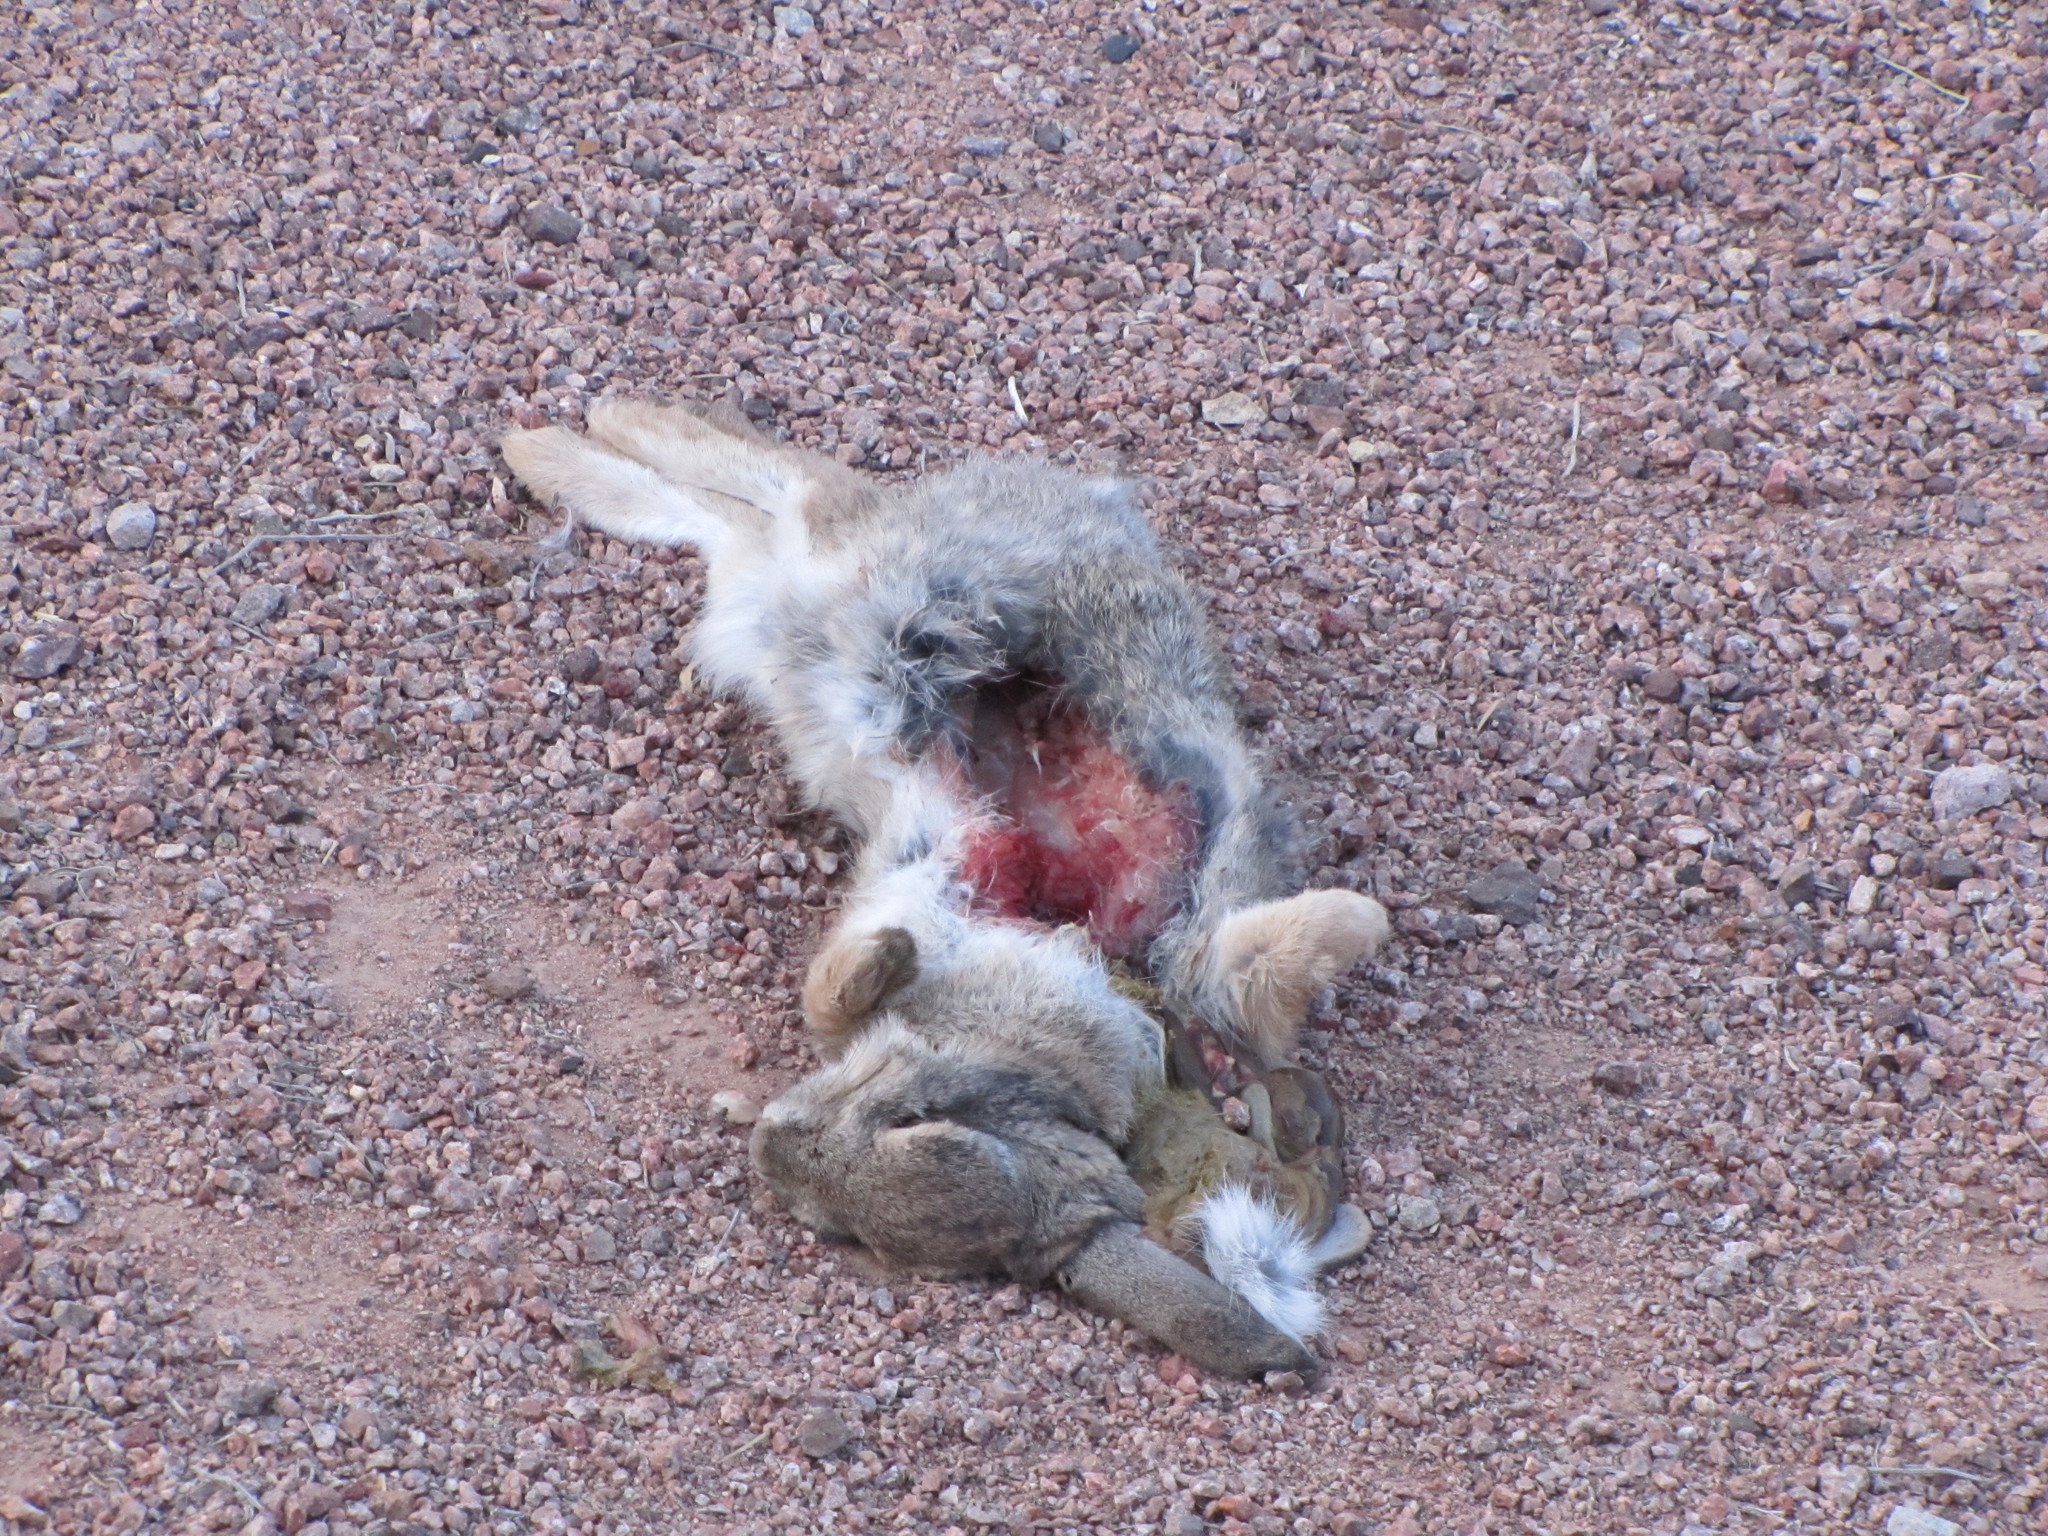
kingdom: Animalia
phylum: Chordata
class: Mammalia
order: Lagomorpha
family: Leporidae
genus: Sylvilagus
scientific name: Sylvilagus audubonii
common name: Desert cottontail
